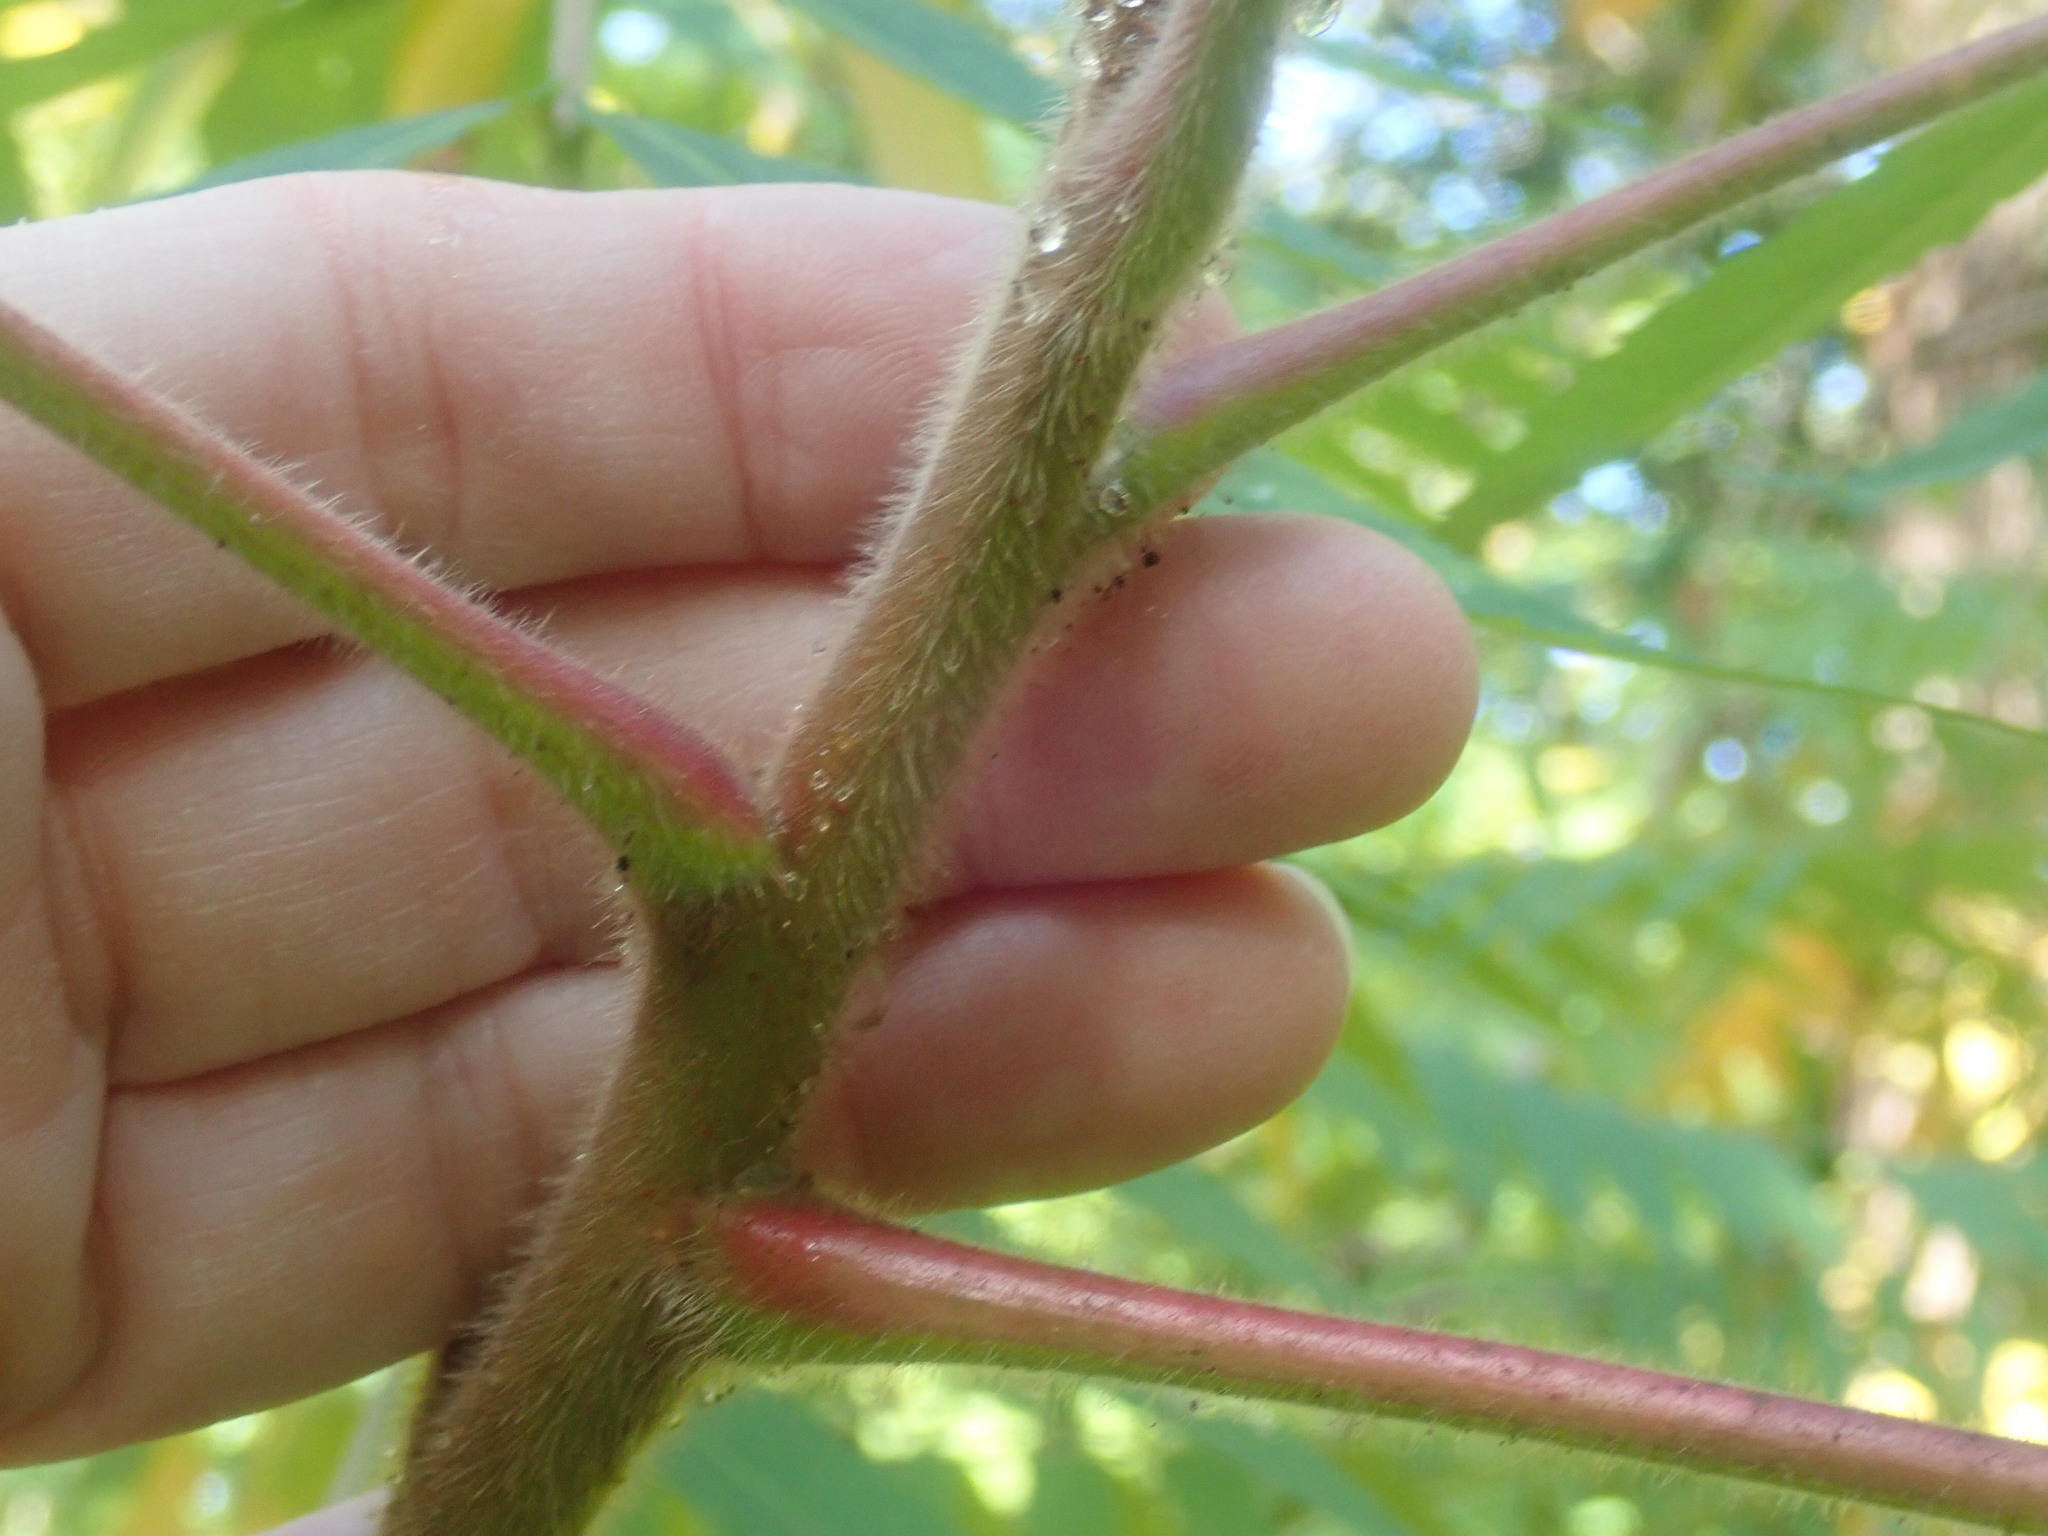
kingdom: Plantae
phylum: Tracheophyta
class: Magnoliopsida
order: Sapindales
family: Anacardiaceae
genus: Rhus
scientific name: Rhus typhina
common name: Staghorn sumac
